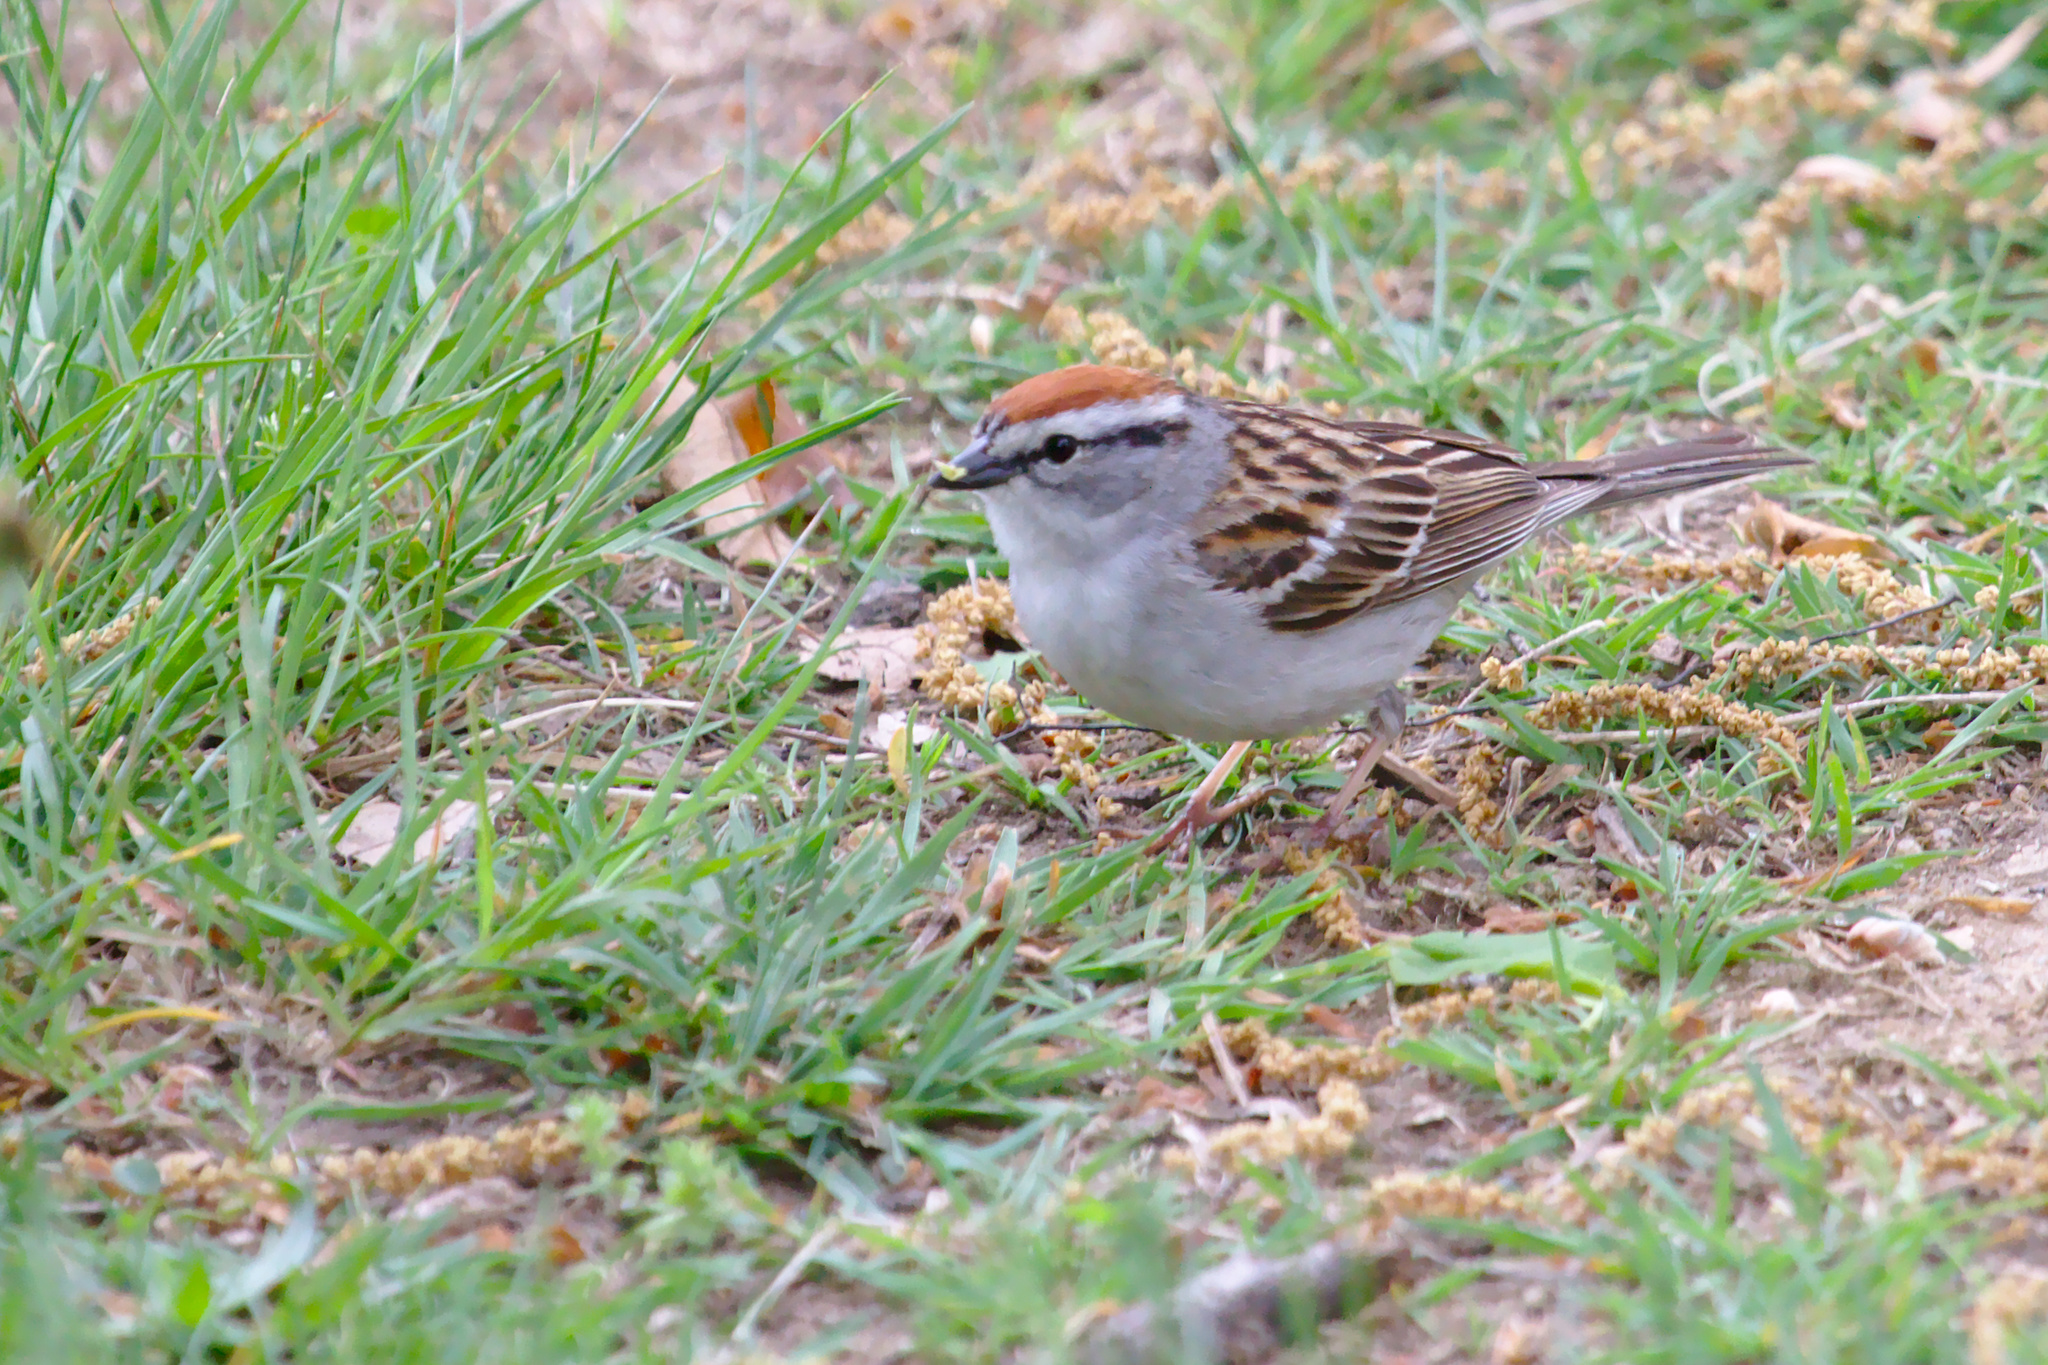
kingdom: Animalia
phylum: Chordata
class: Aves
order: Passeriformes
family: Passerellidae
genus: Spizella
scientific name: Spizella passerina
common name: Chipping sparrow
